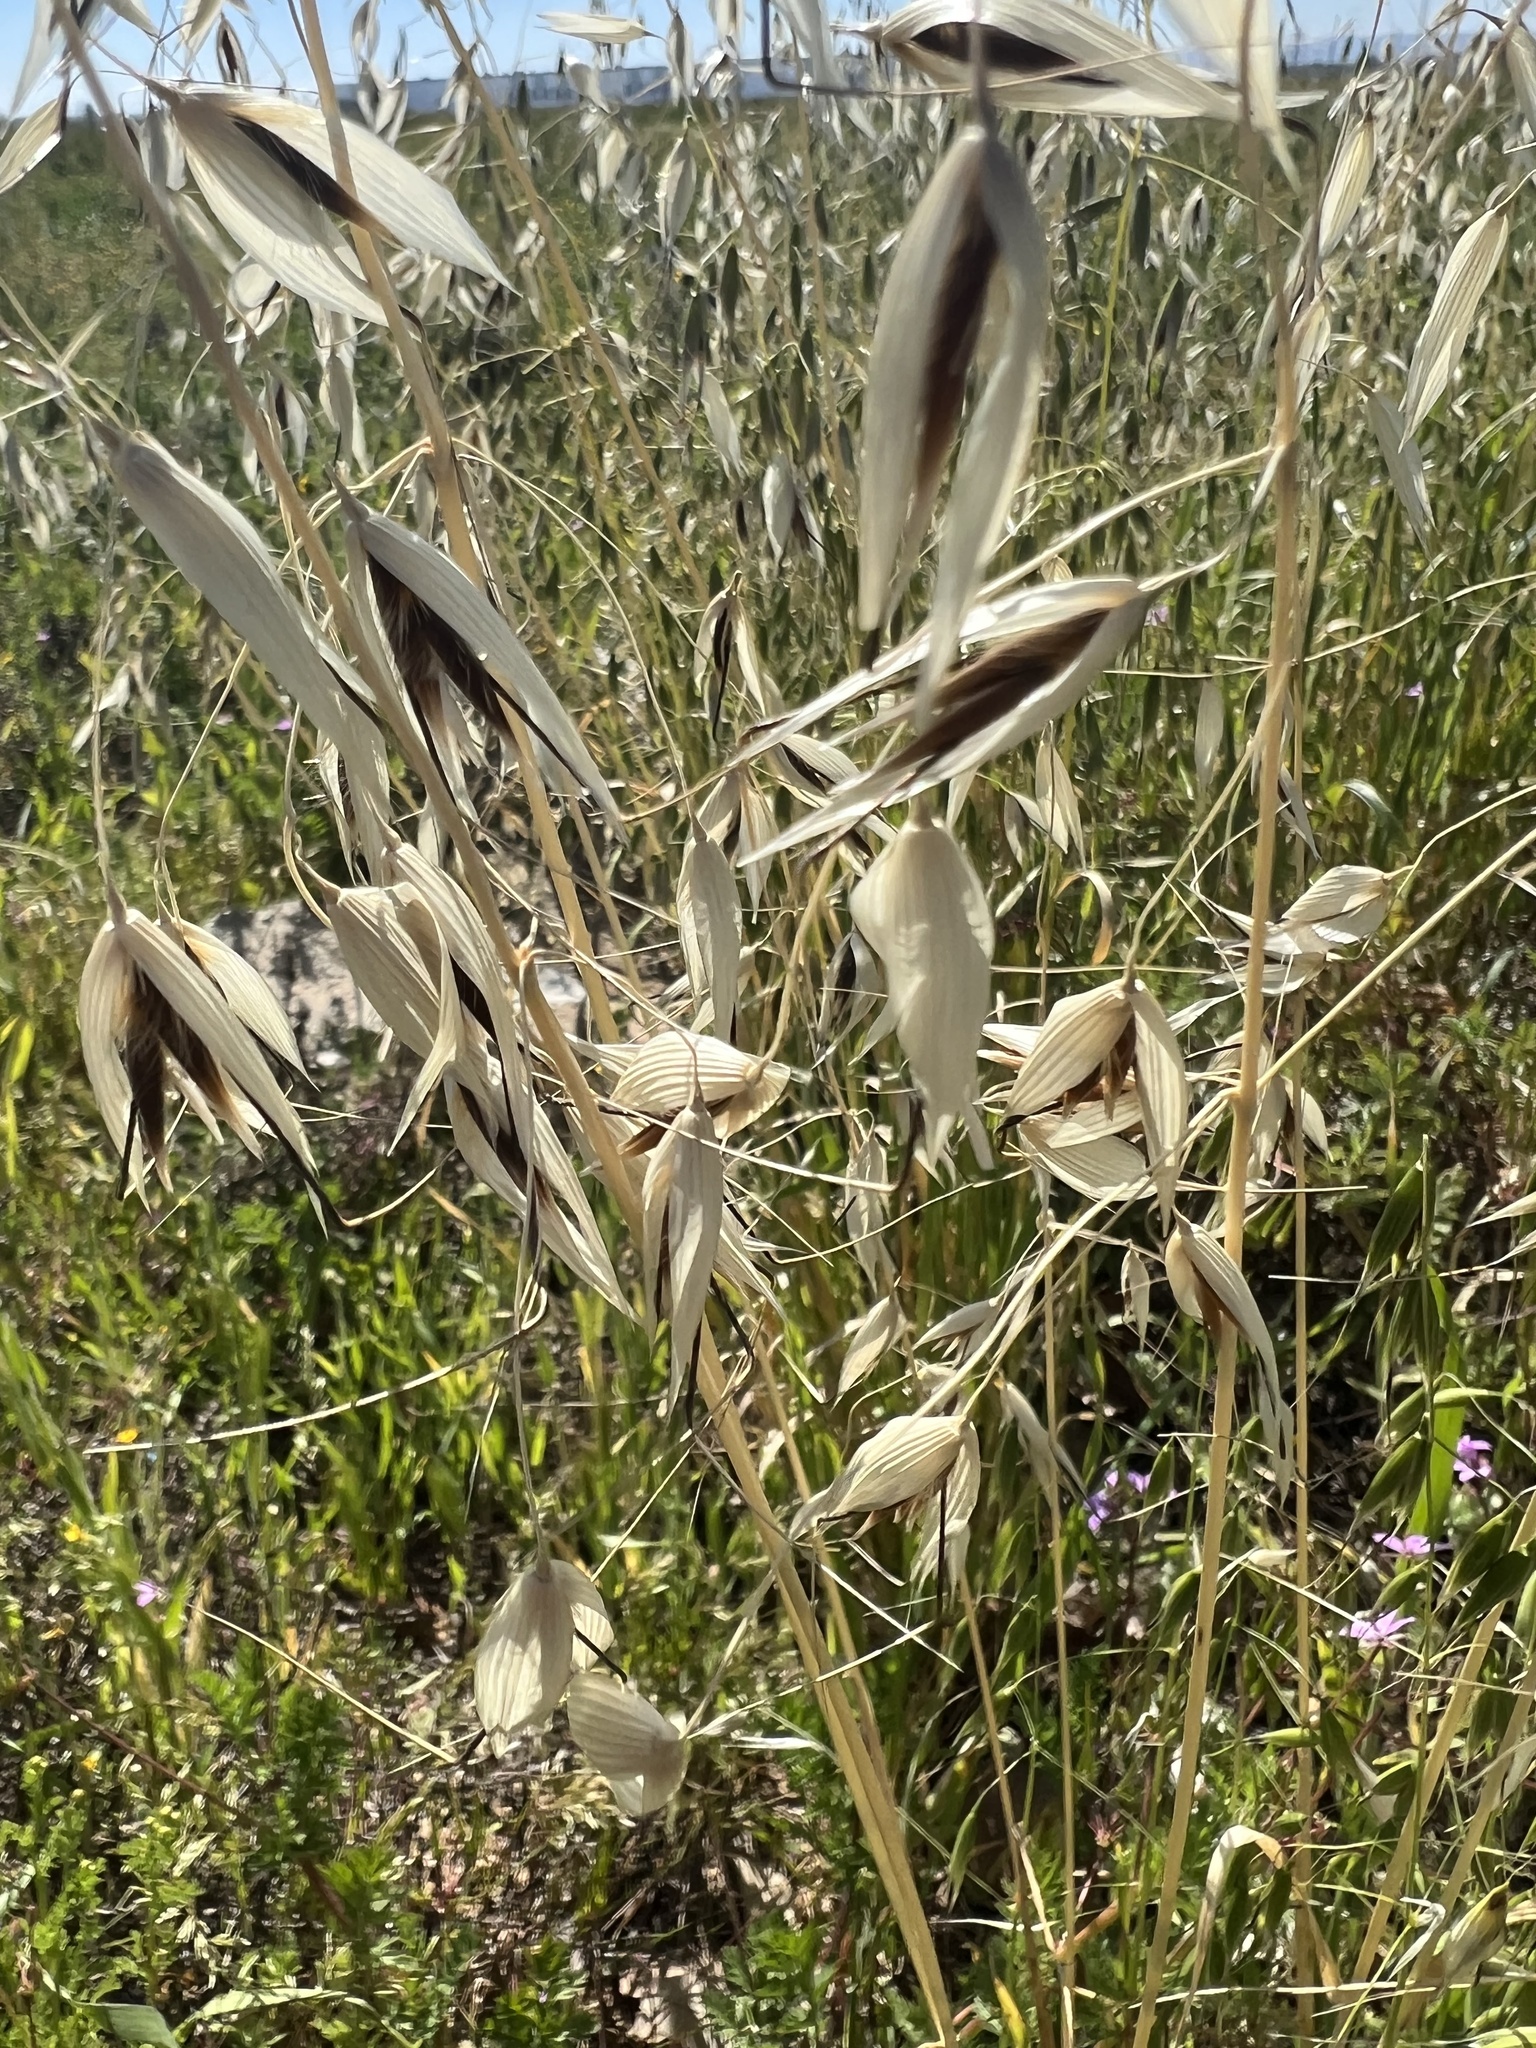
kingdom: Plantae
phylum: Tracheophyta
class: Liliopsida
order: Poales
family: Poaceae
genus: Avena
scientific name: Avena fatua
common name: Wild oat
